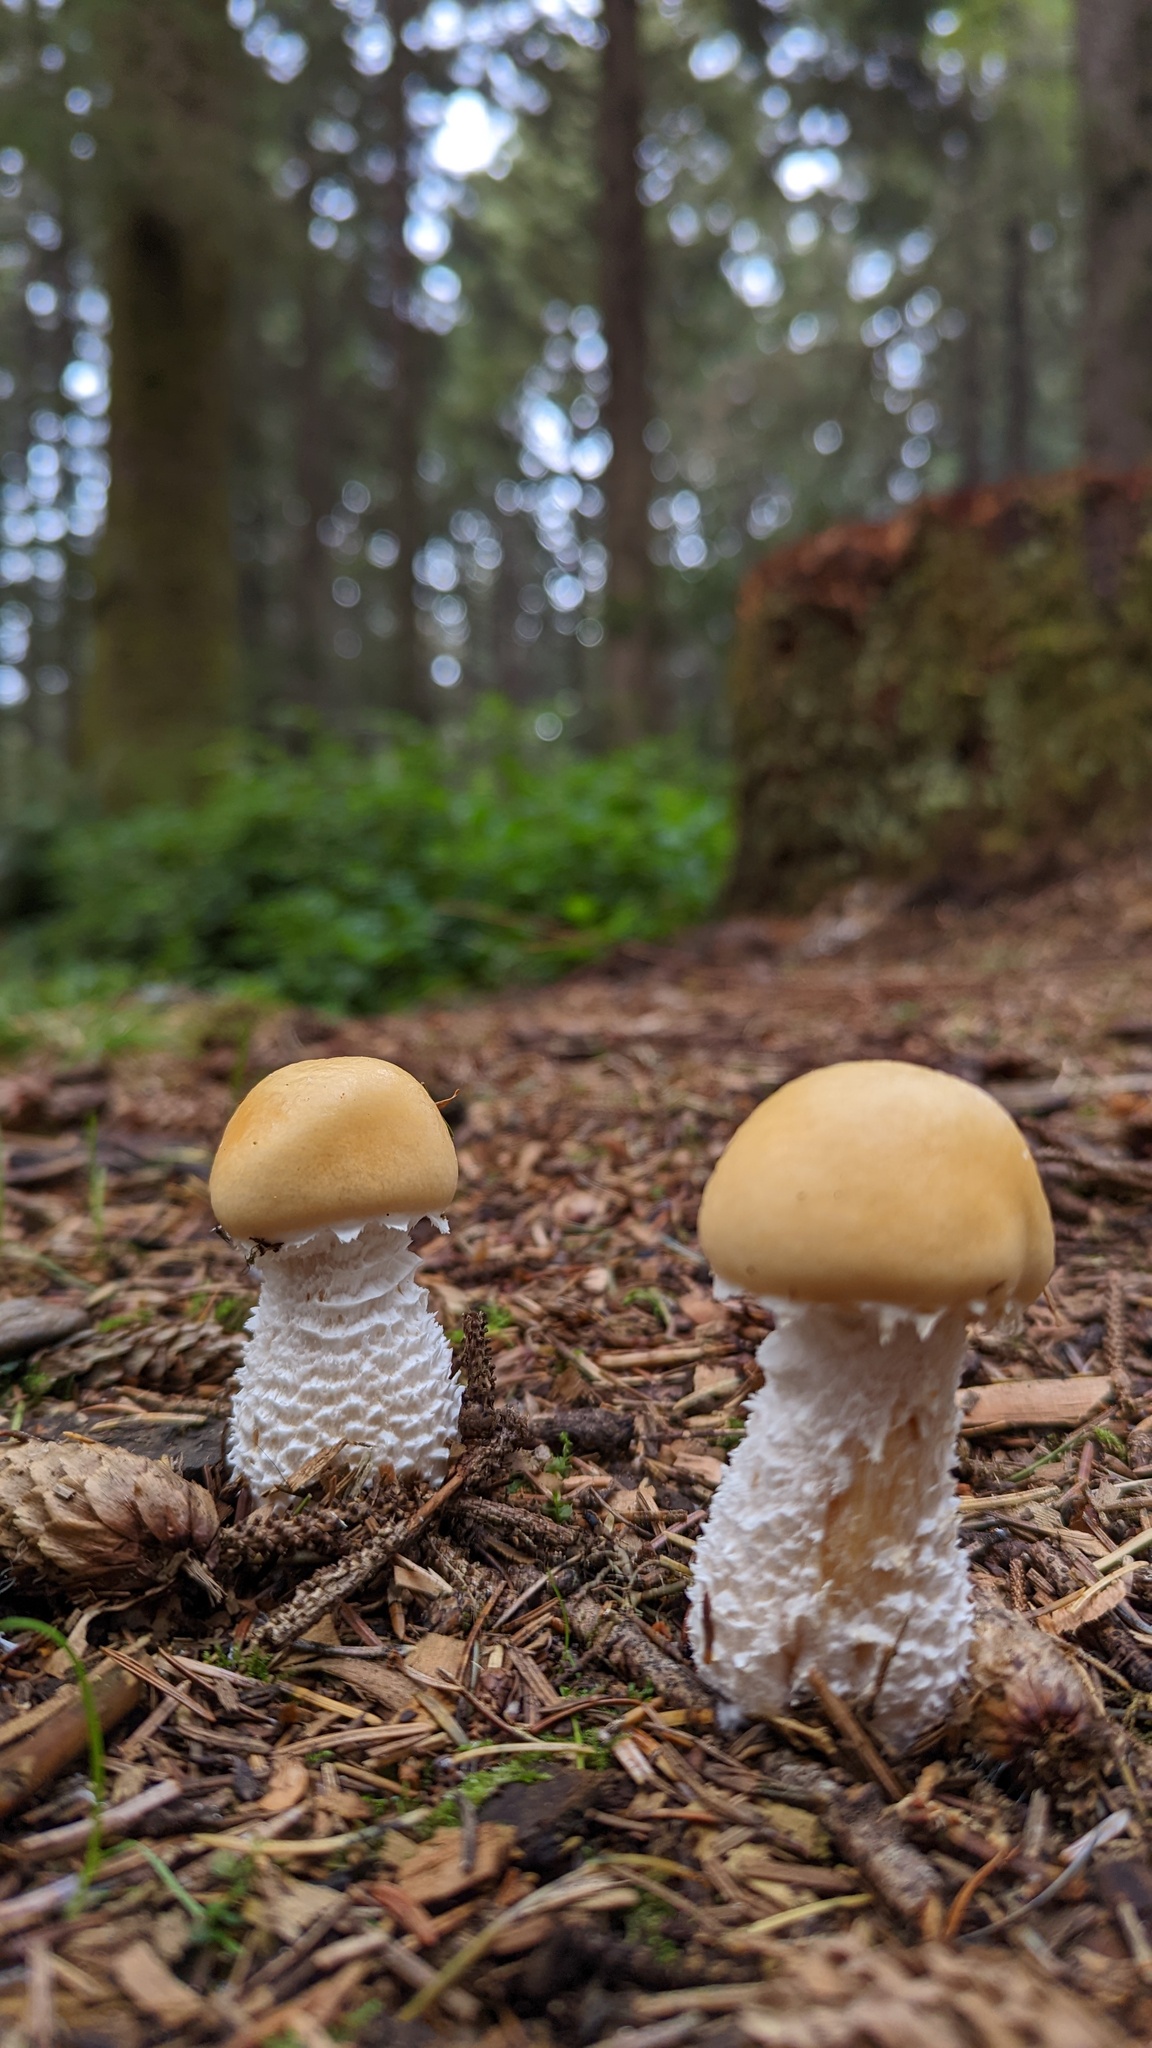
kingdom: Fungi
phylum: Basidiomycota
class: Agaricomycetes
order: Agaricales
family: Strophariaceae
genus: Stropharia
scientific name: Stropharia ambigua
